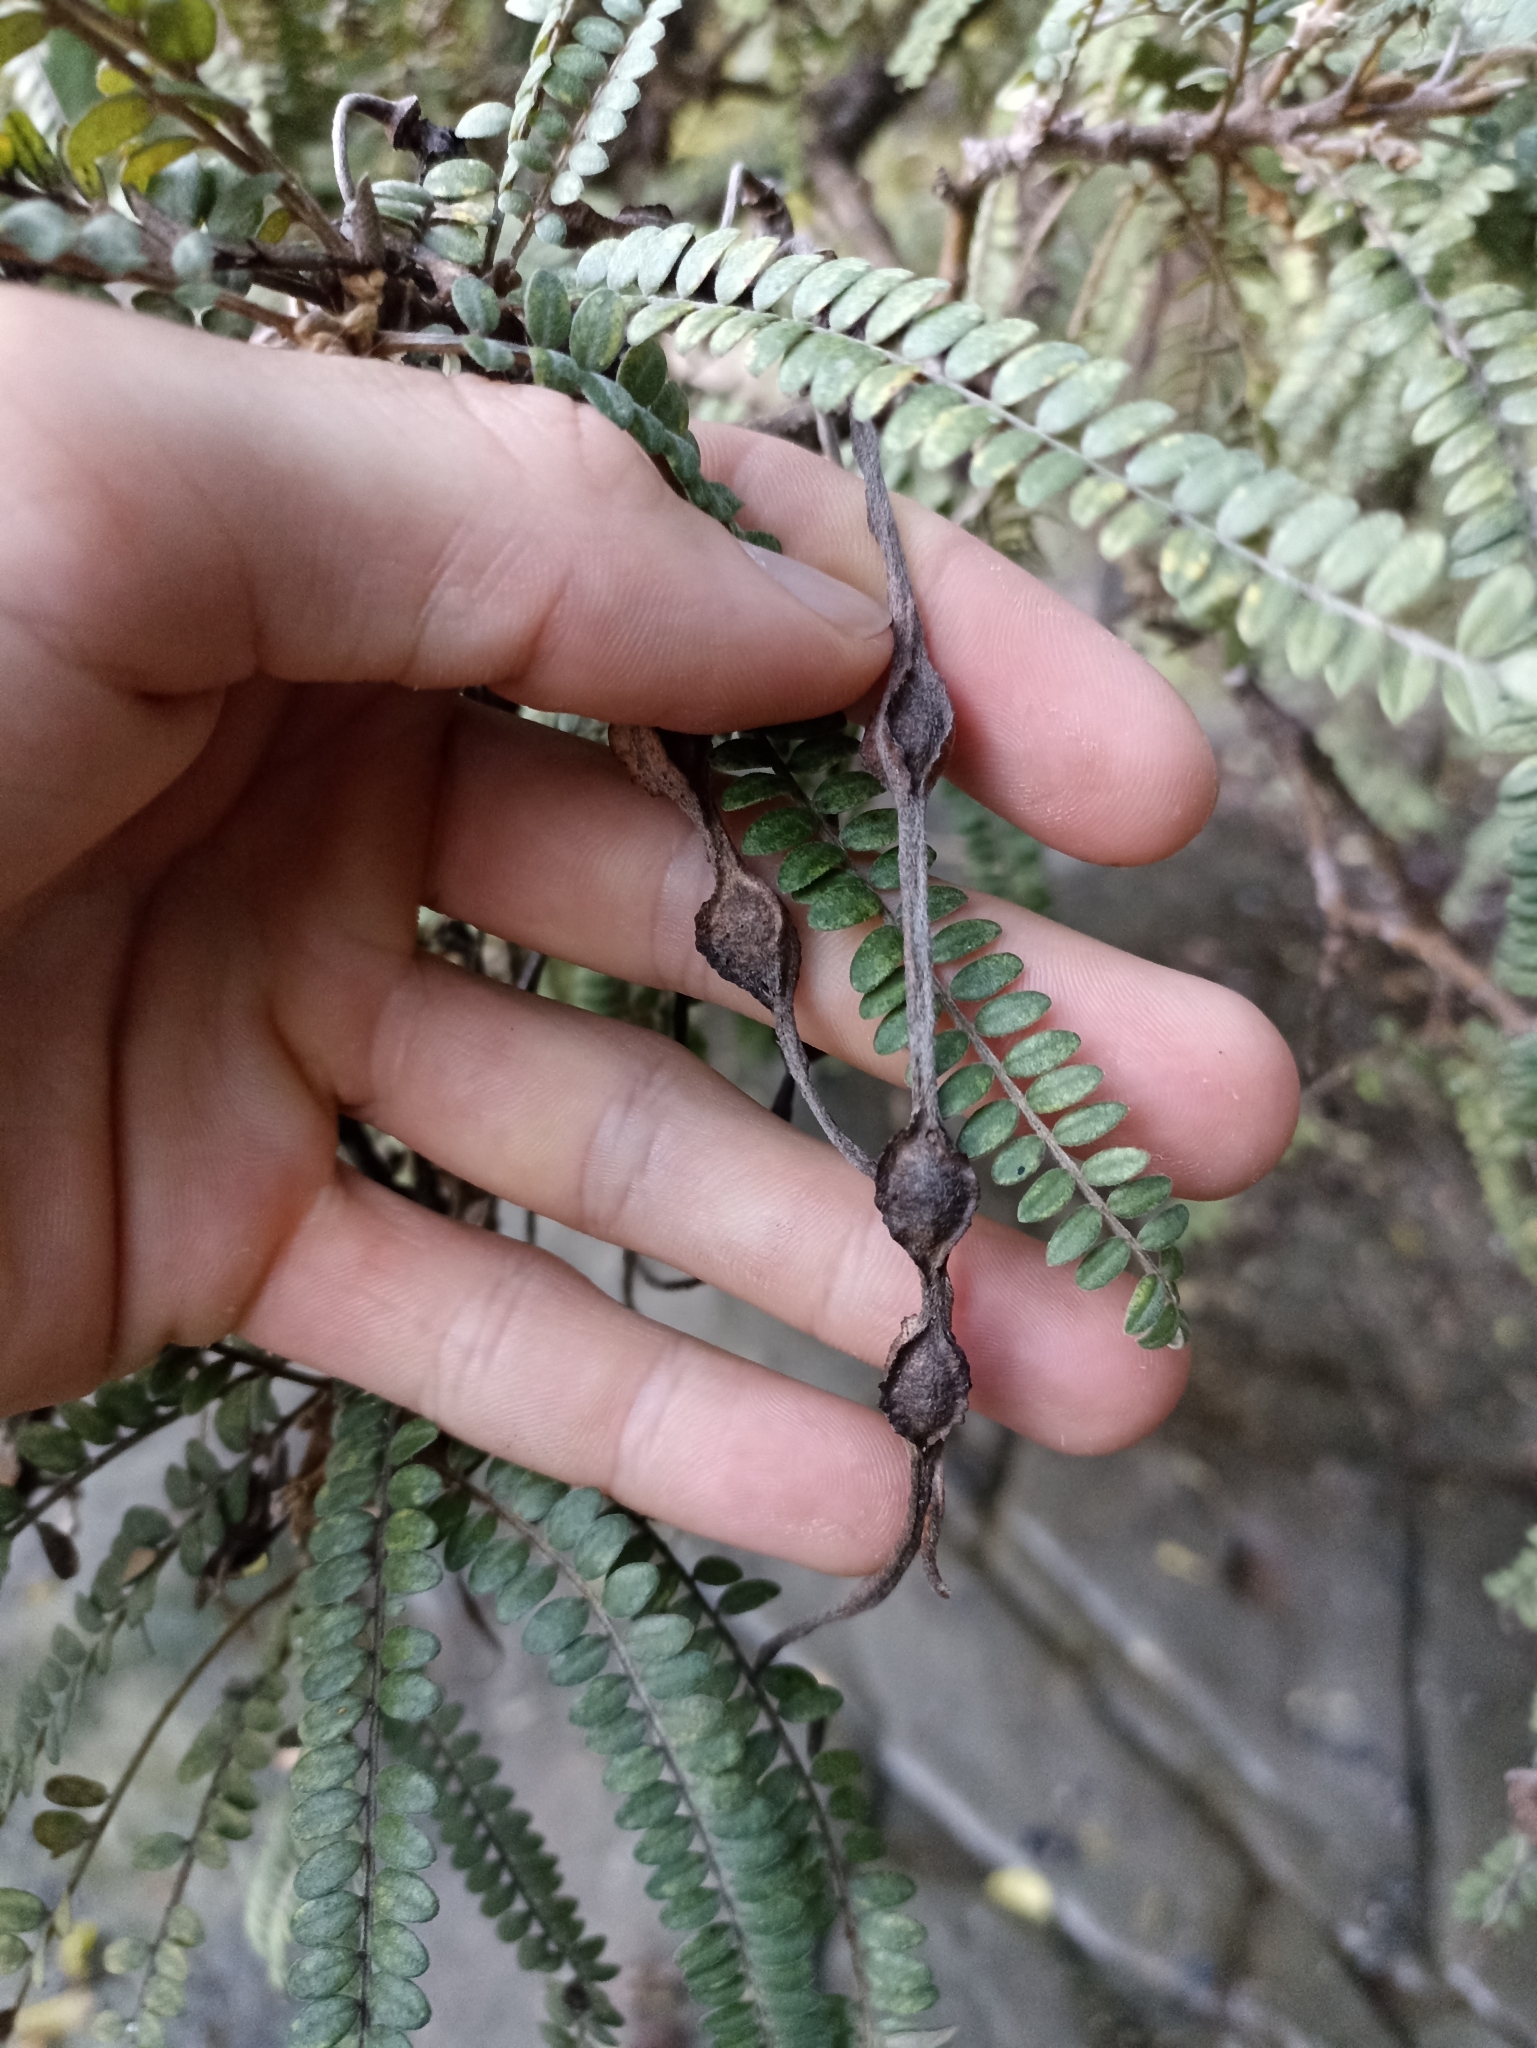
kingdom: Plantae
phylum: Tracheophyta
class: Magnoliopsida
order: Fabales
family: Fabaceae
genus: Sophora
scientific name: Sophora chathamica
